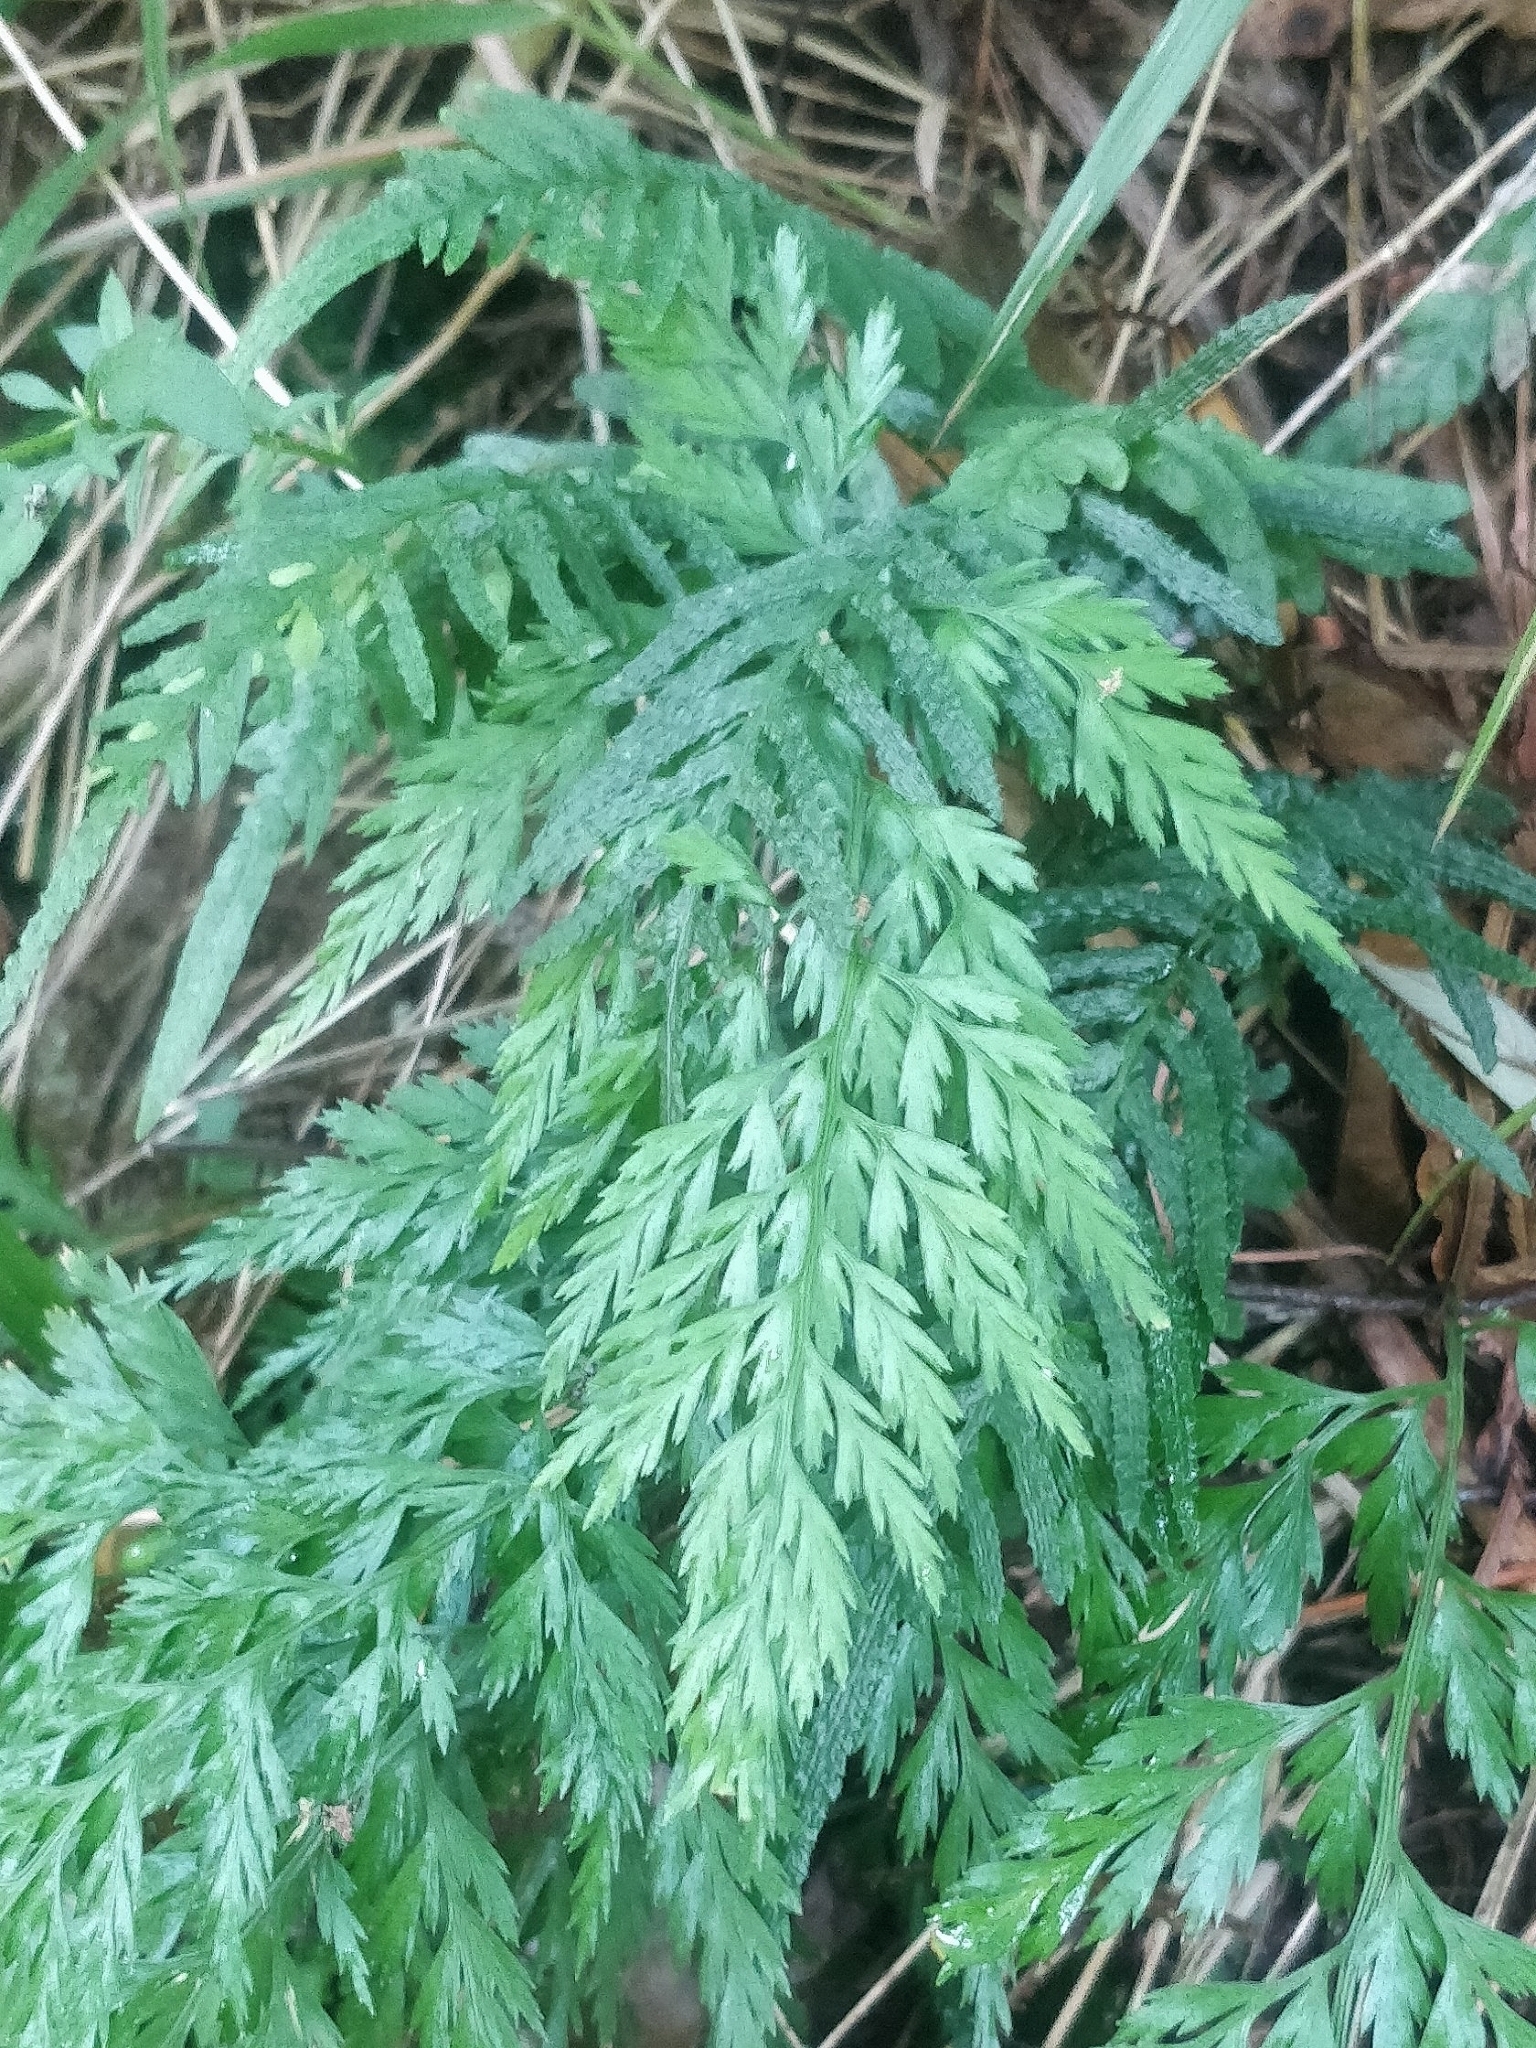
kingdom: Plantae
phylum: Tracheophyta
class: Polypodiopsida
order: Polypodiales
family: Aspleniaceae
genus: Asplenium
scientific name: Asplenium onopteris
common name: Irish spleenwort
